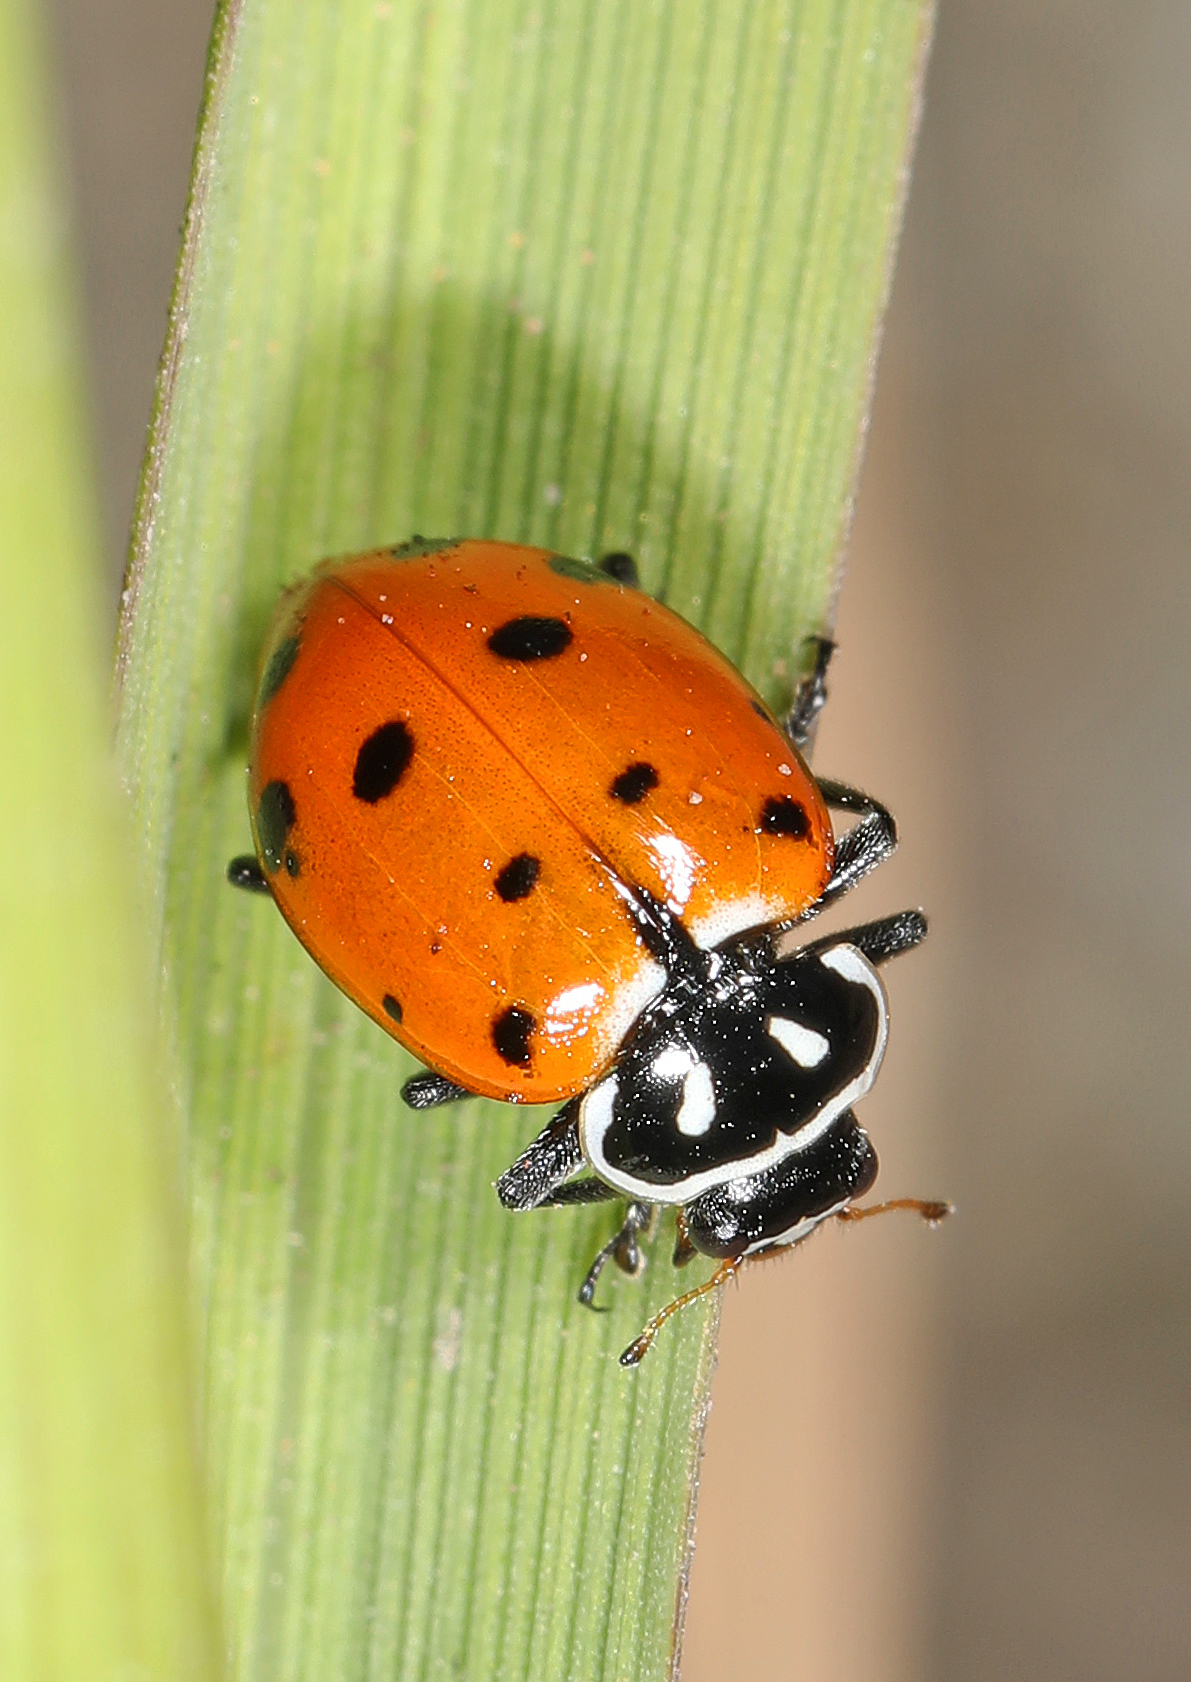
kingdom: Animalia
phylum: Arthropoda
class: Insecta
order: Coleoptera
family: Coccinellidae
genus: Hippodamia
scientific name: Hippodamia convergens
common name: Convergent lady beetle
